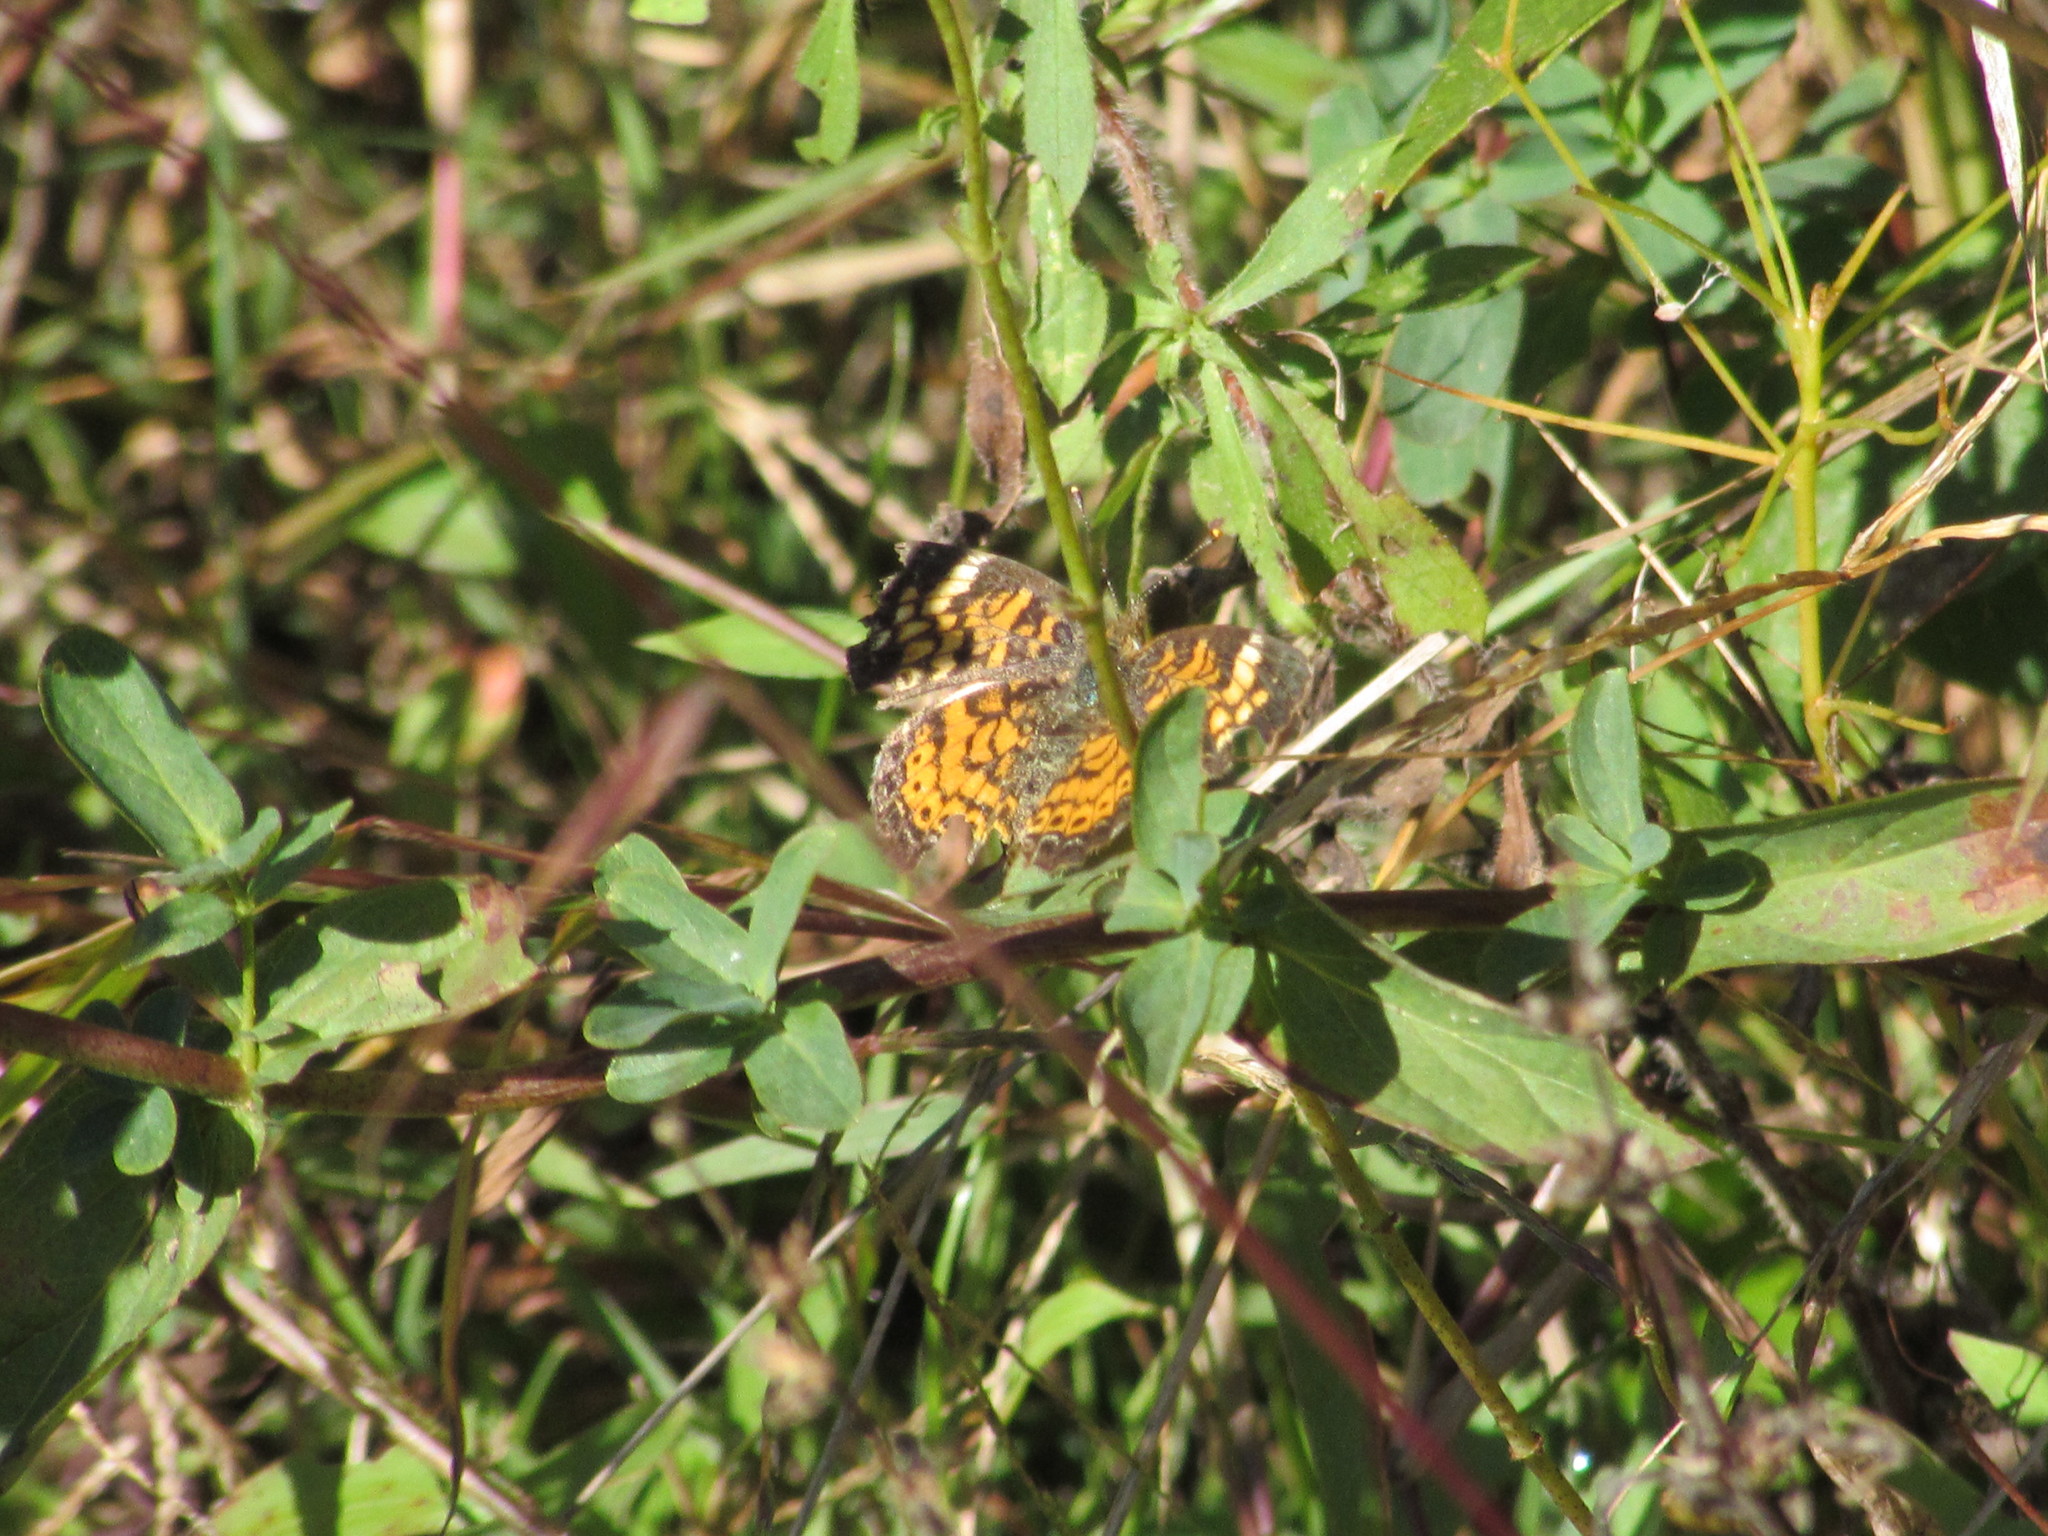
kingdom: Animalia
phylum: Arthropoda
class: Insecta
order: Lepidoptera
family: Nymphalidae
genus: Phyciodes
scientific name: Phyciodes tharos
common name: Pearl crescent
